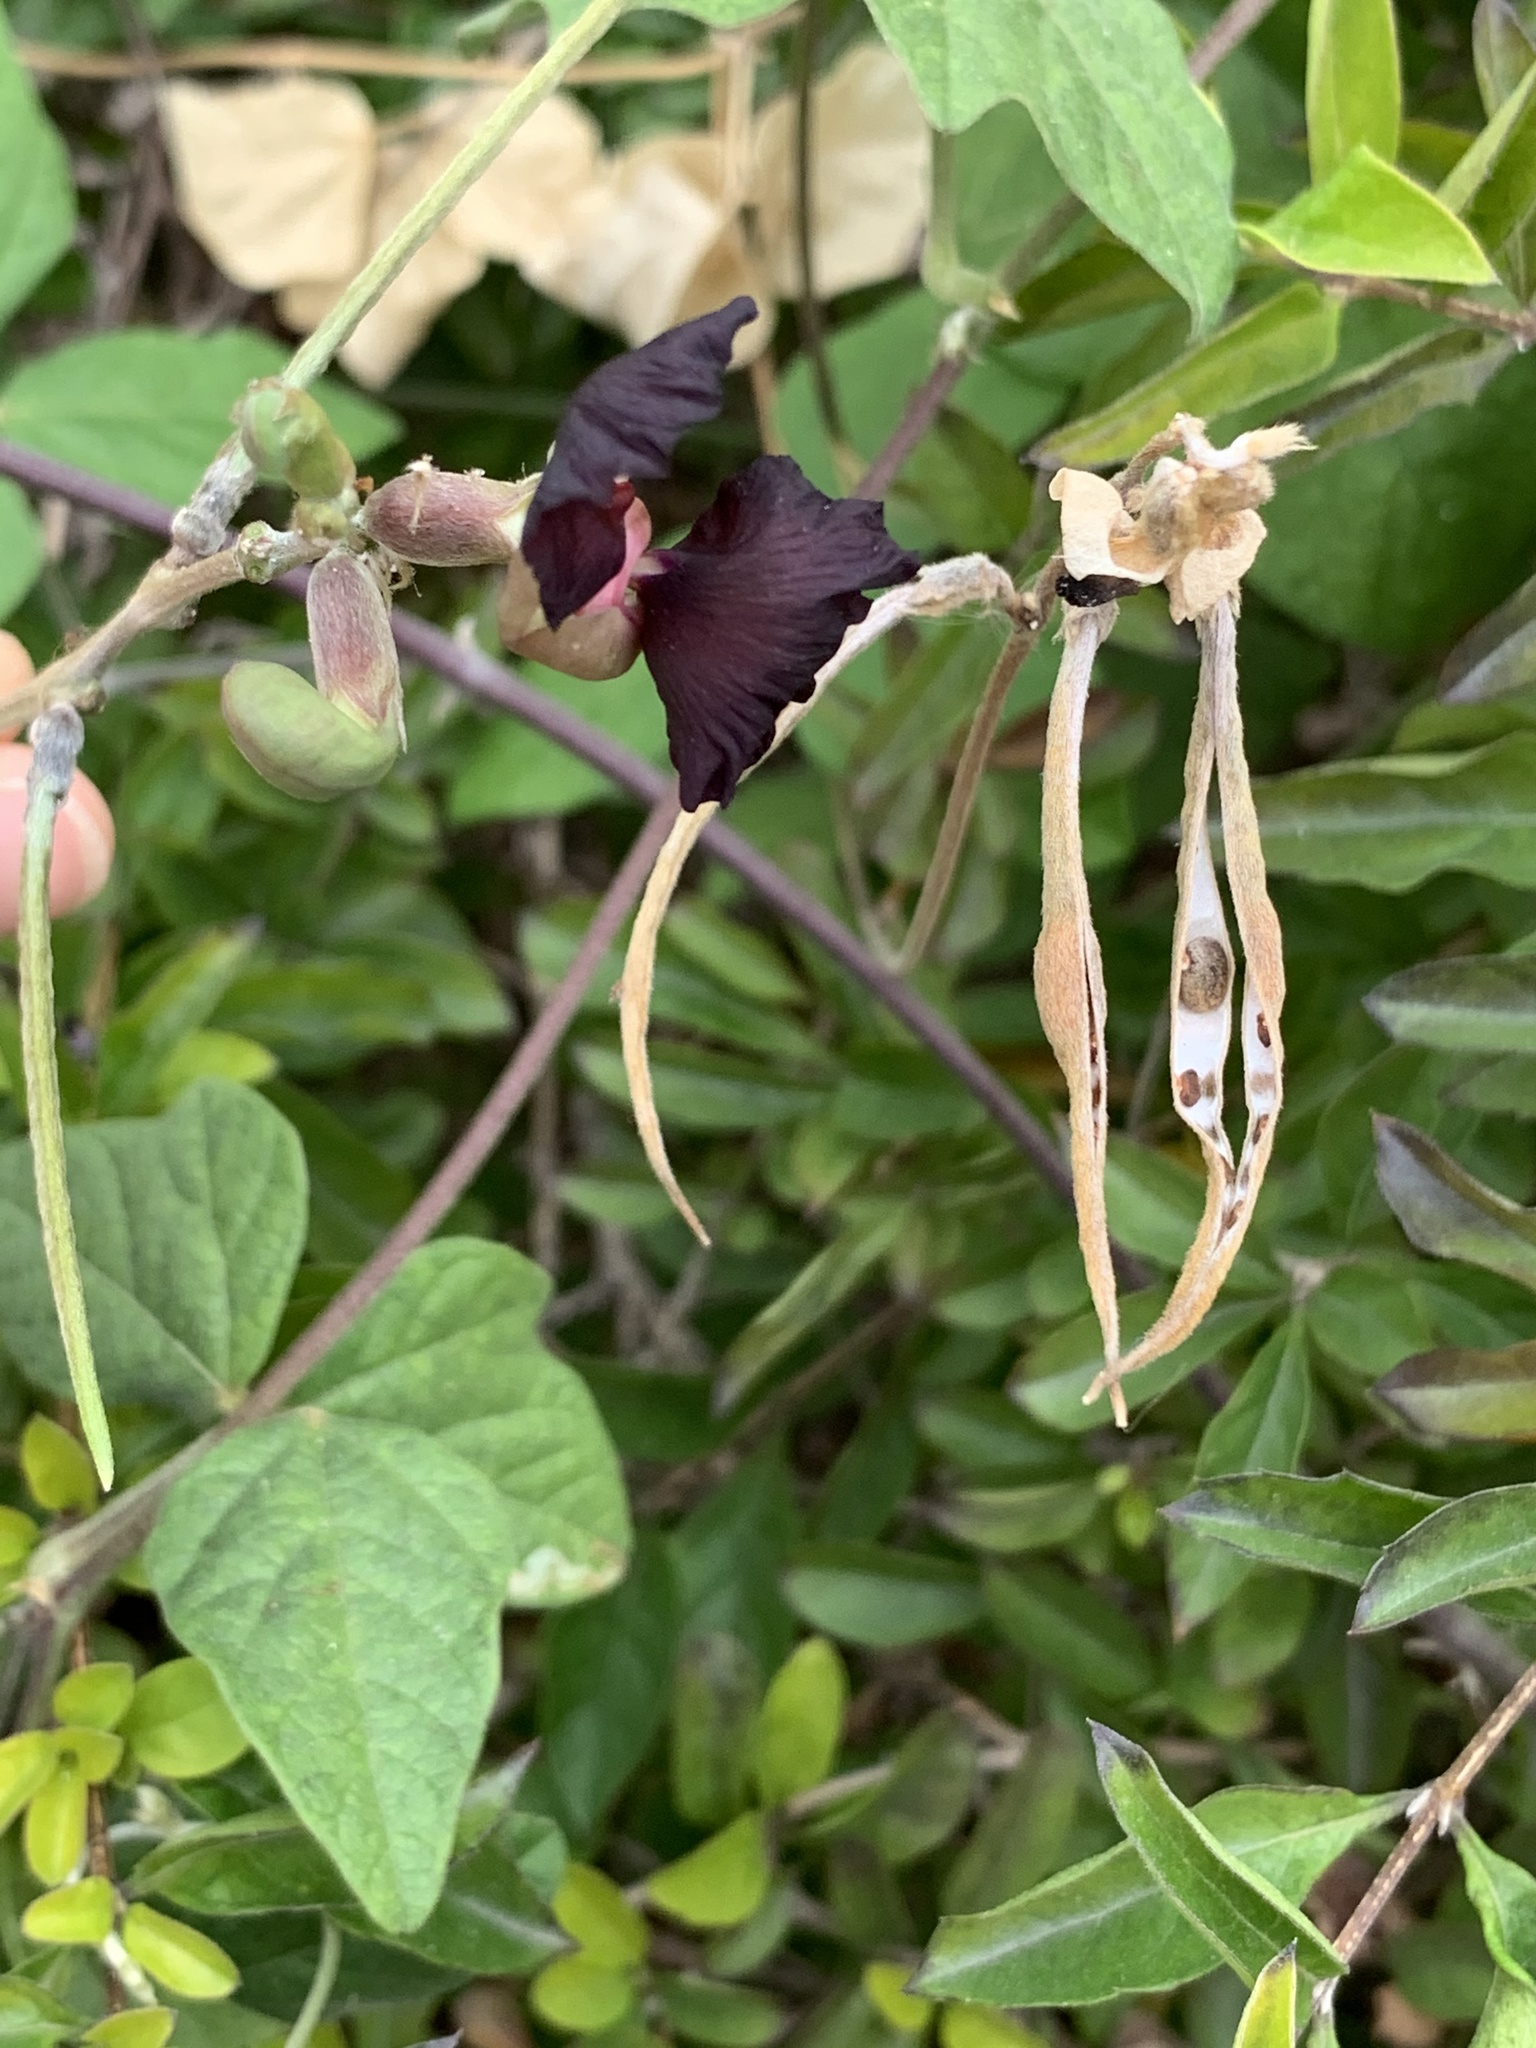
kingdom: Plantae
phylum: Tracheophyta
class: Magnoliopsida
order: Fabales
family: Fabaceae
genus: Macroptilium
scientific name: Macroptilium atropurpureum
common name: Purple bushbean
